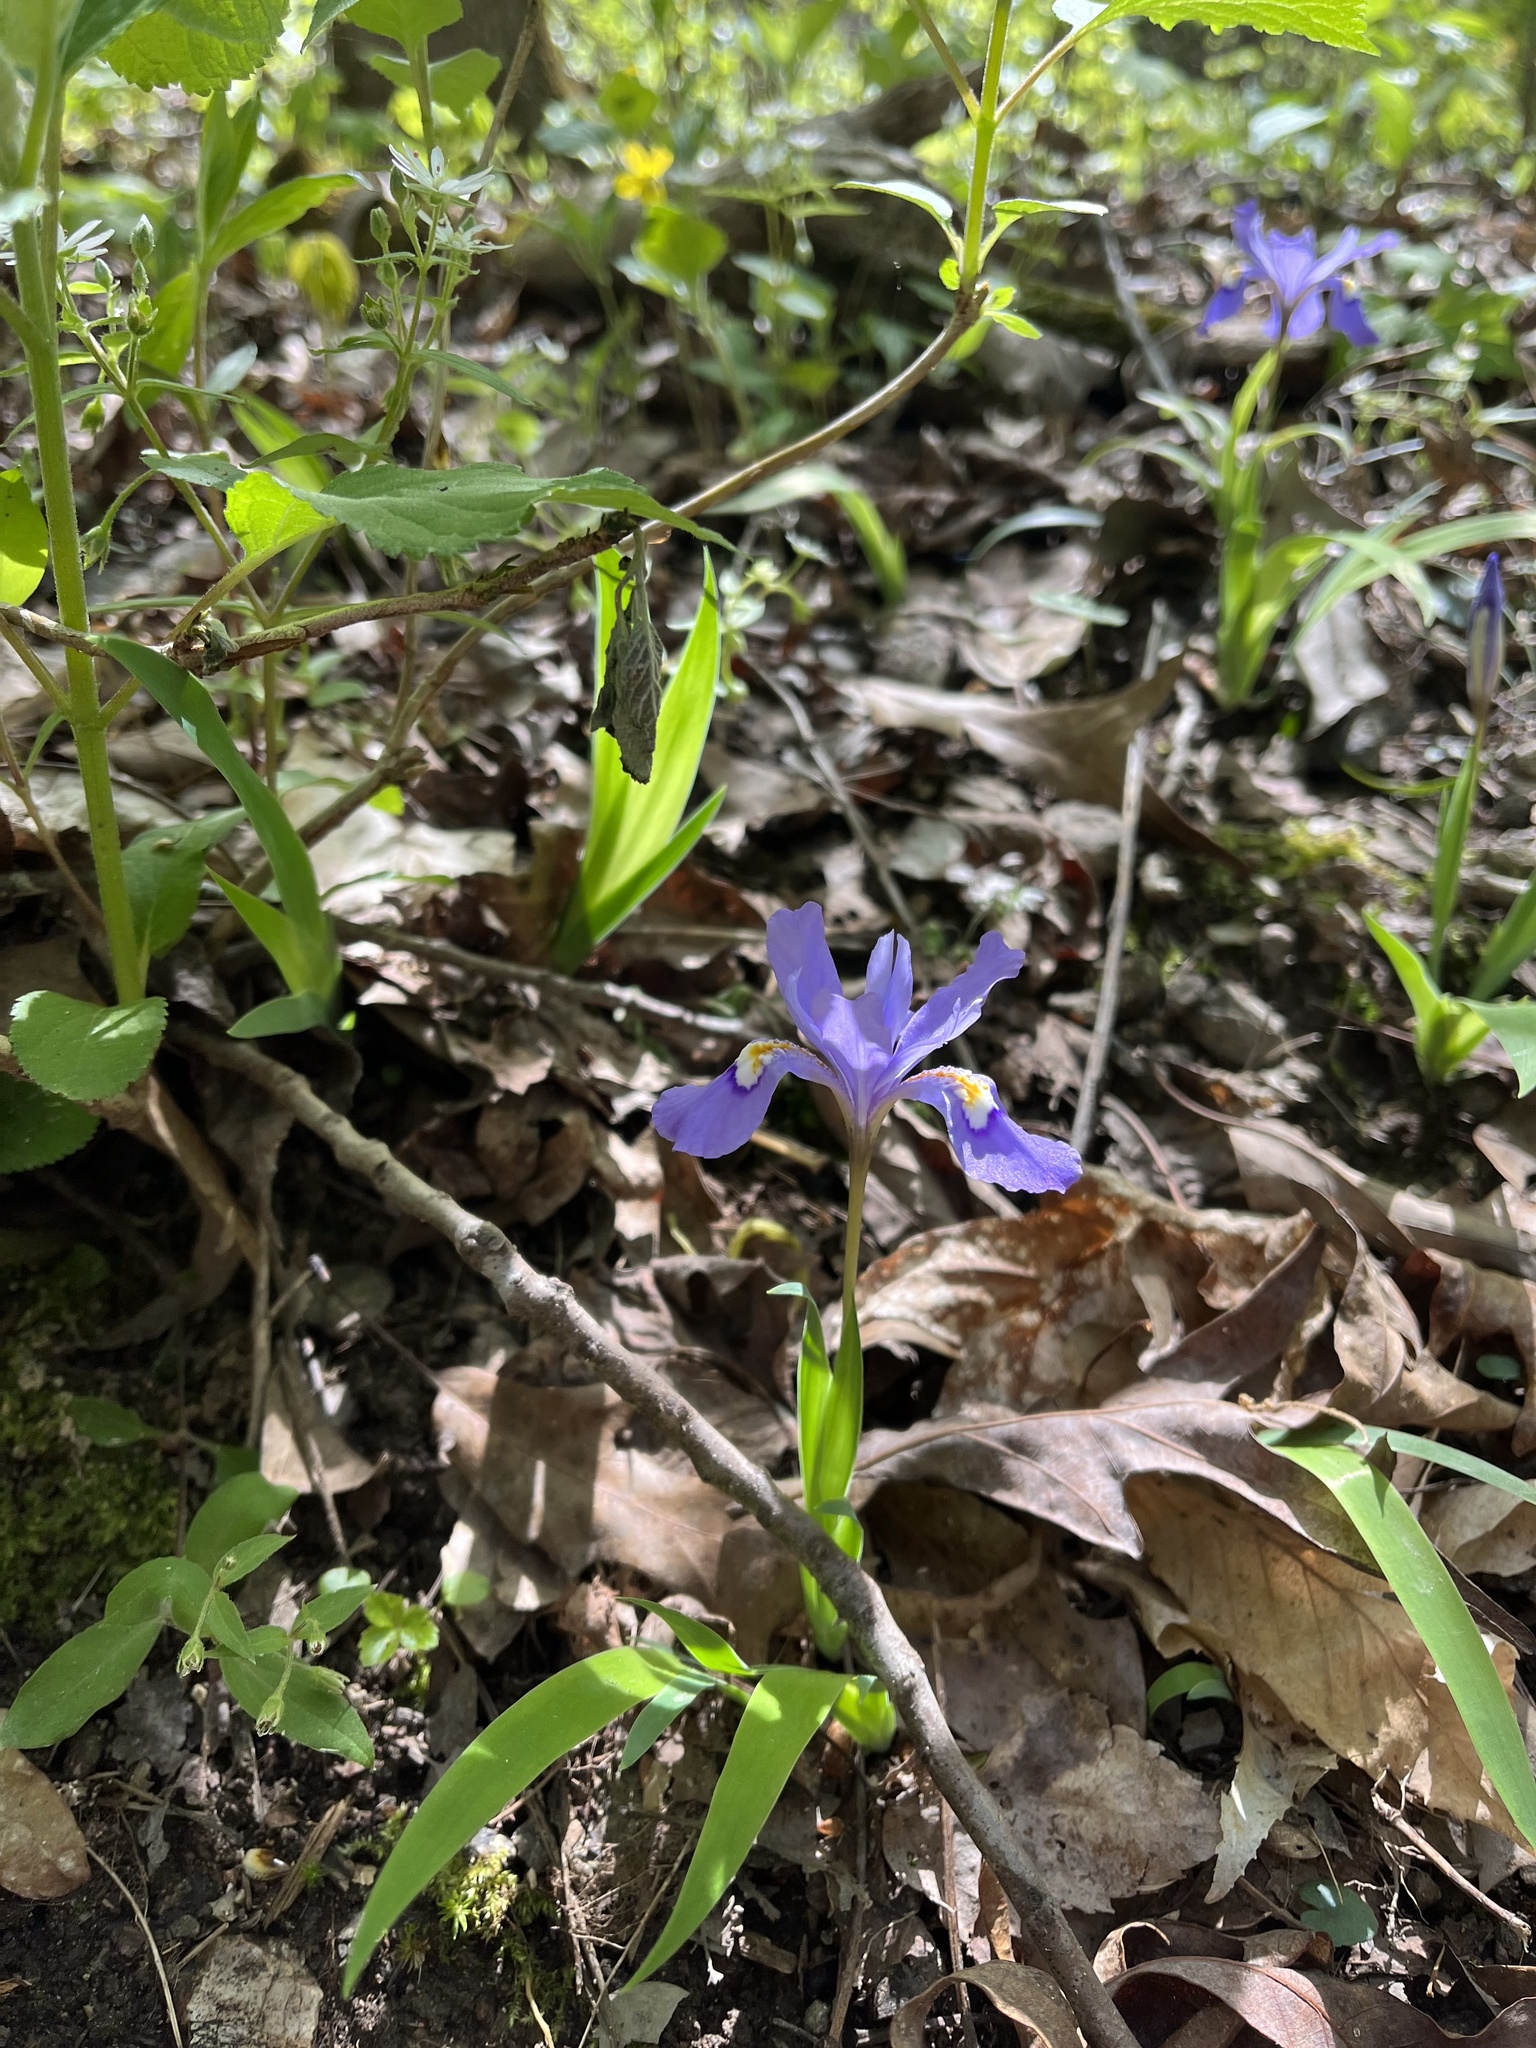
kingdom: Plantae
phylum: Tracheophyta
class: Liliopsida
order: Asparagales
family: Iridaceae
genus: Iris
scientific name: Iris cristata
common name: Crested iris
